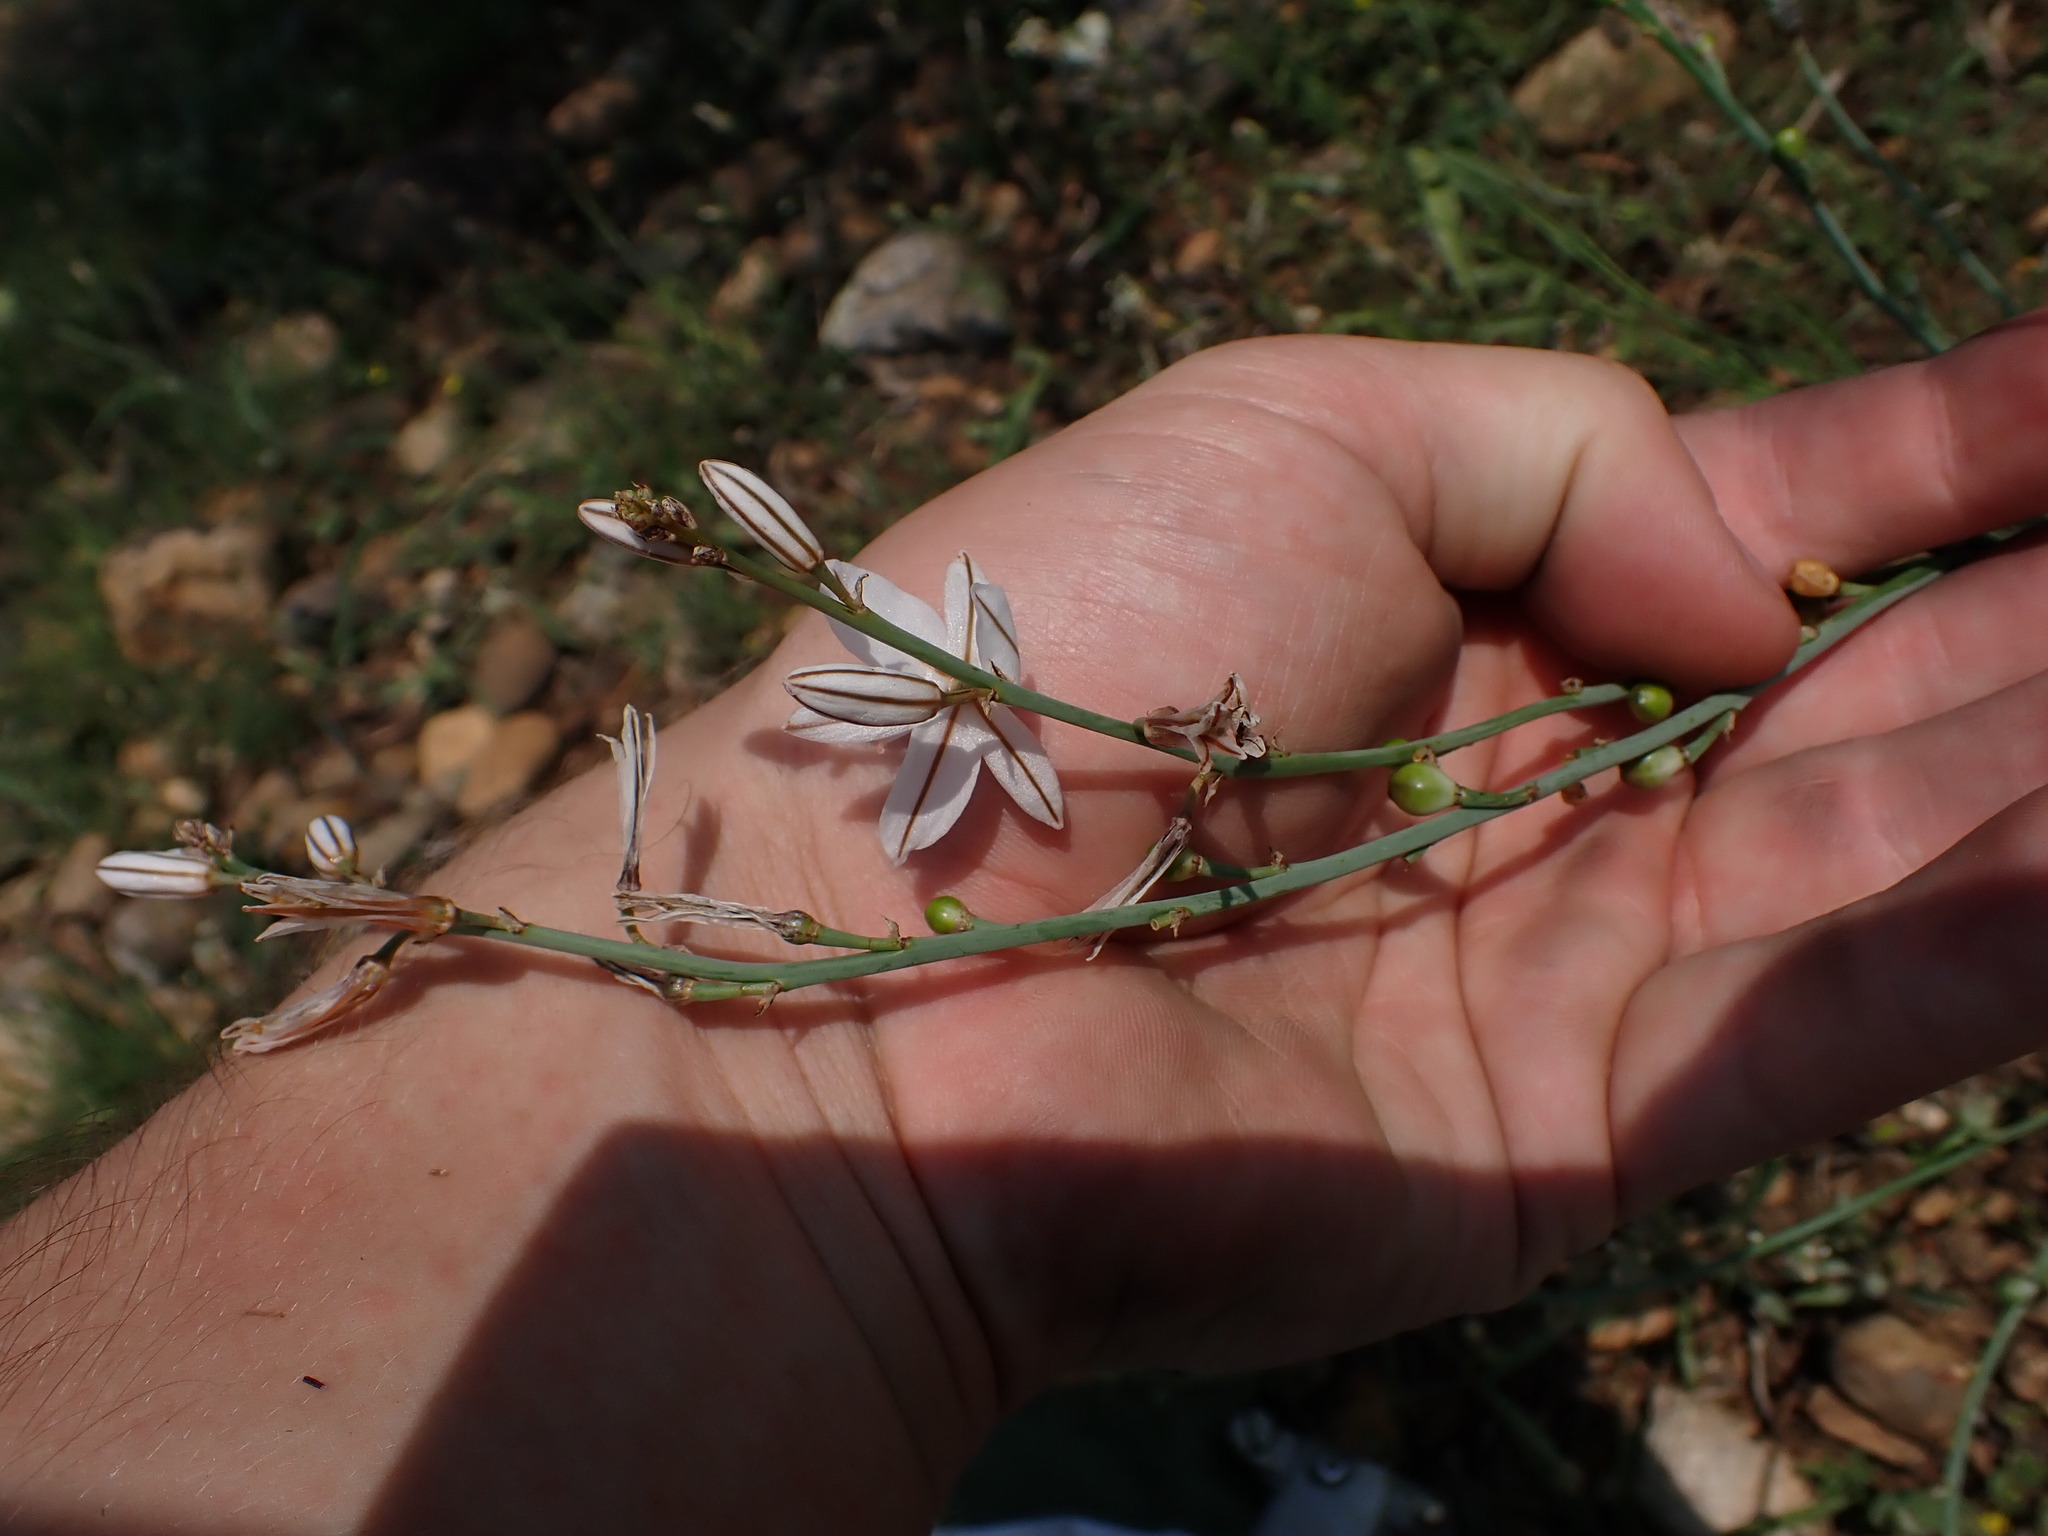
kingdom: Plantae
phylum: Tracheophyta
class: Liliopsida
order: Asparagales
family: Asphodelaceae
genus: Asphodelus
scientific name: Asphodelus ayardii
